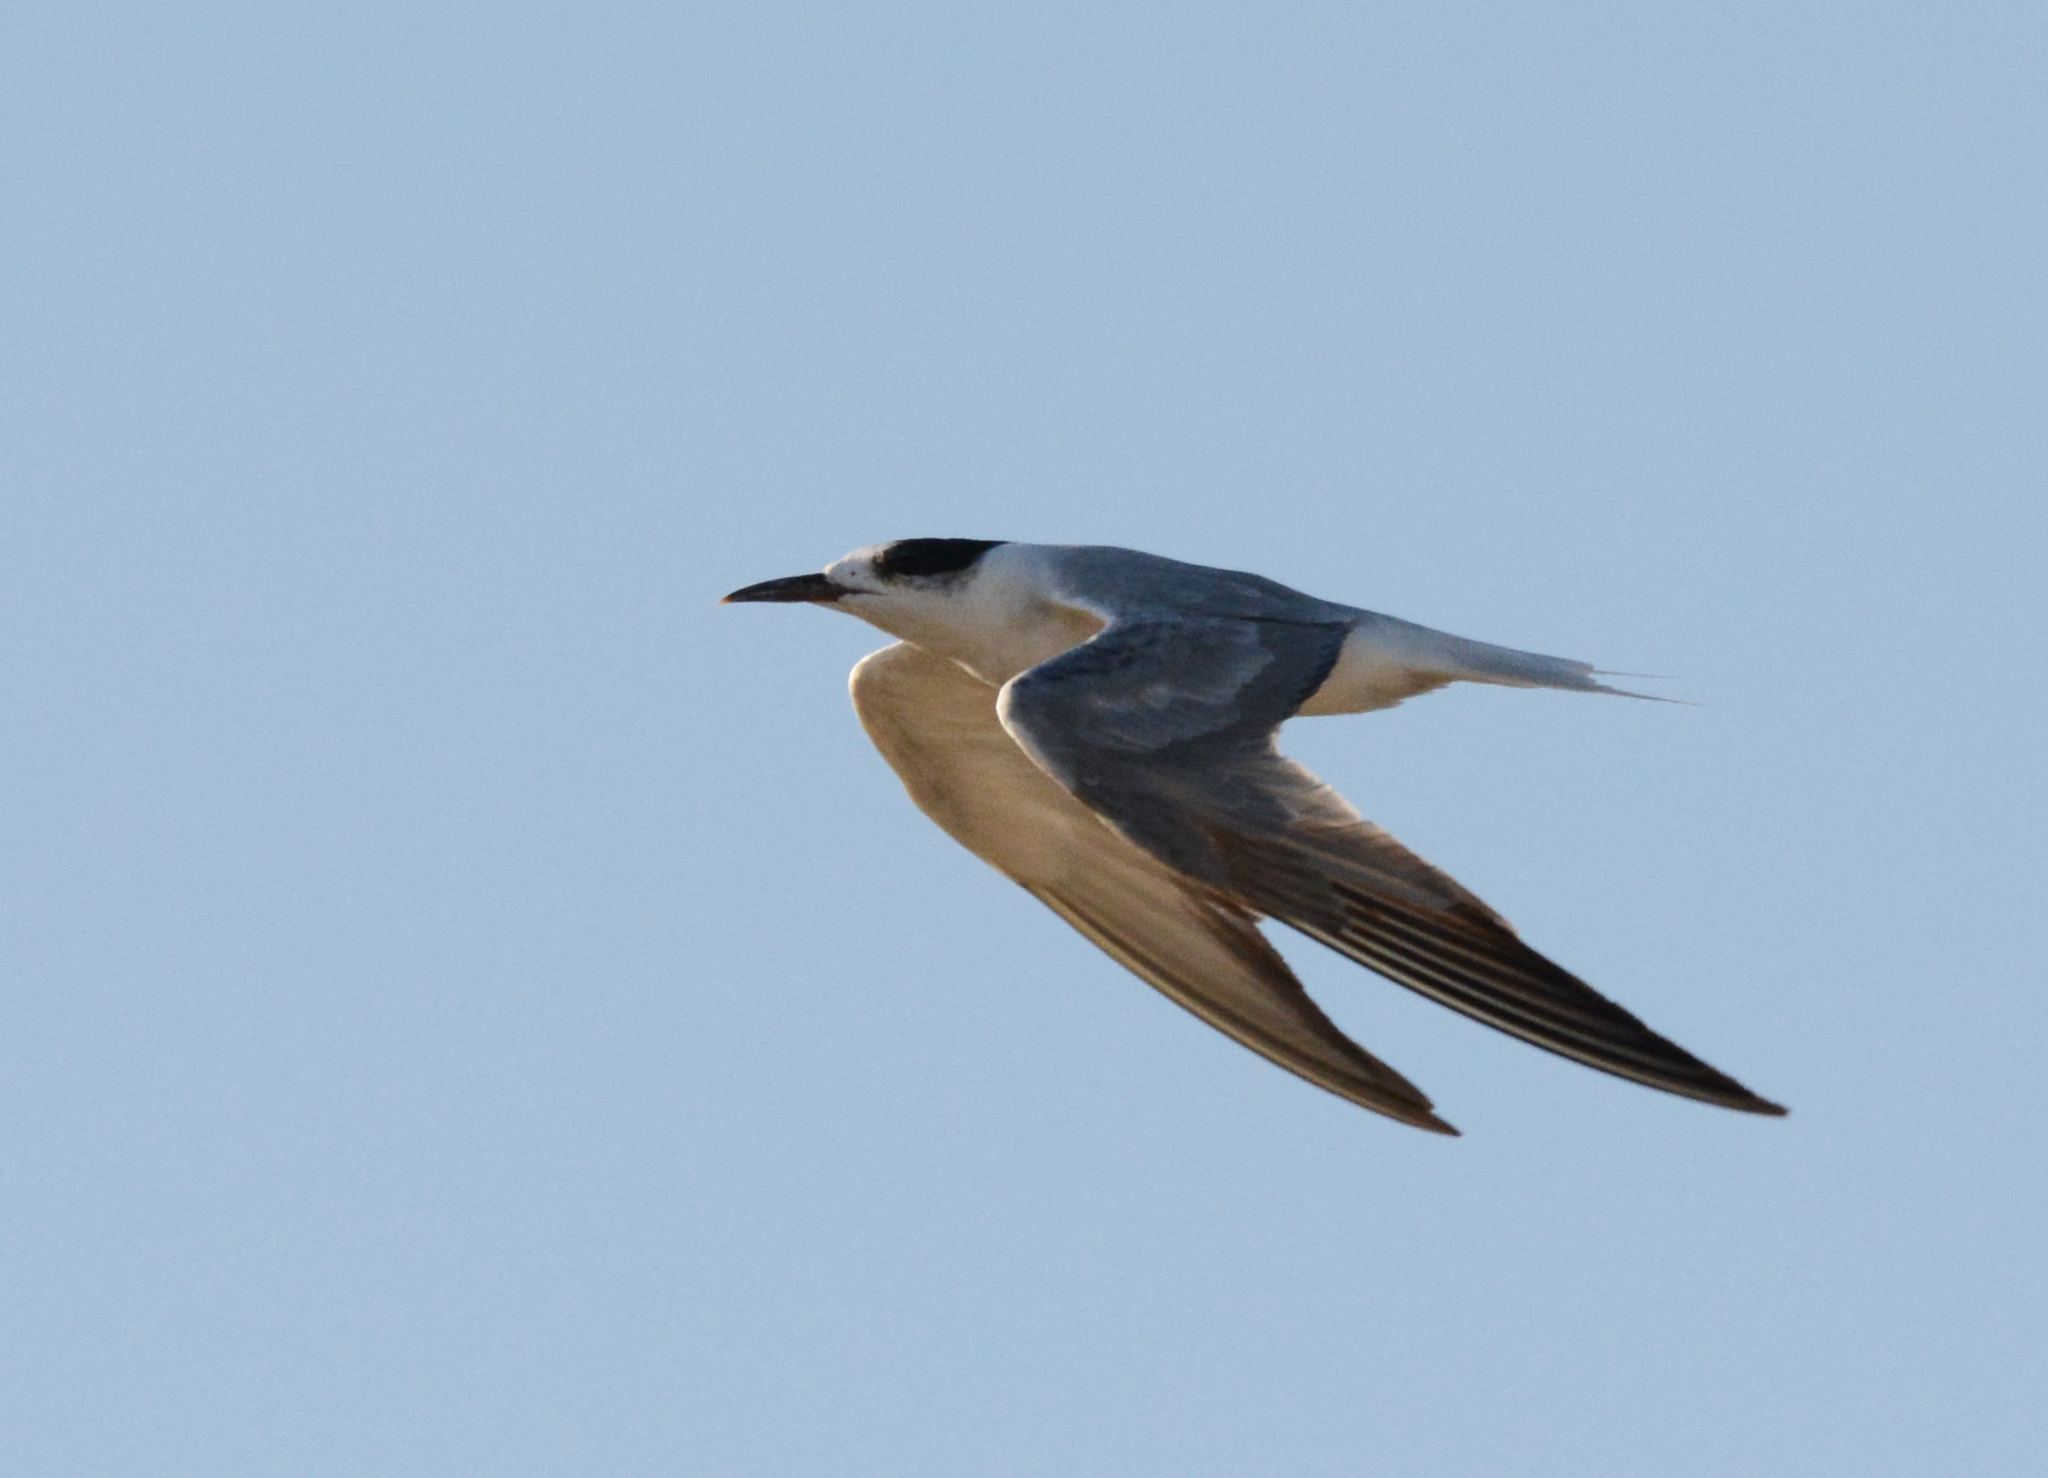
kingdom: Animalia
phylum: Chordata
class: Aves
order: Charadriiformes
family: Laridae
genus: Thalasseus
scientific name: Thalasseus sandvicensis
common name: Sandwich tern
